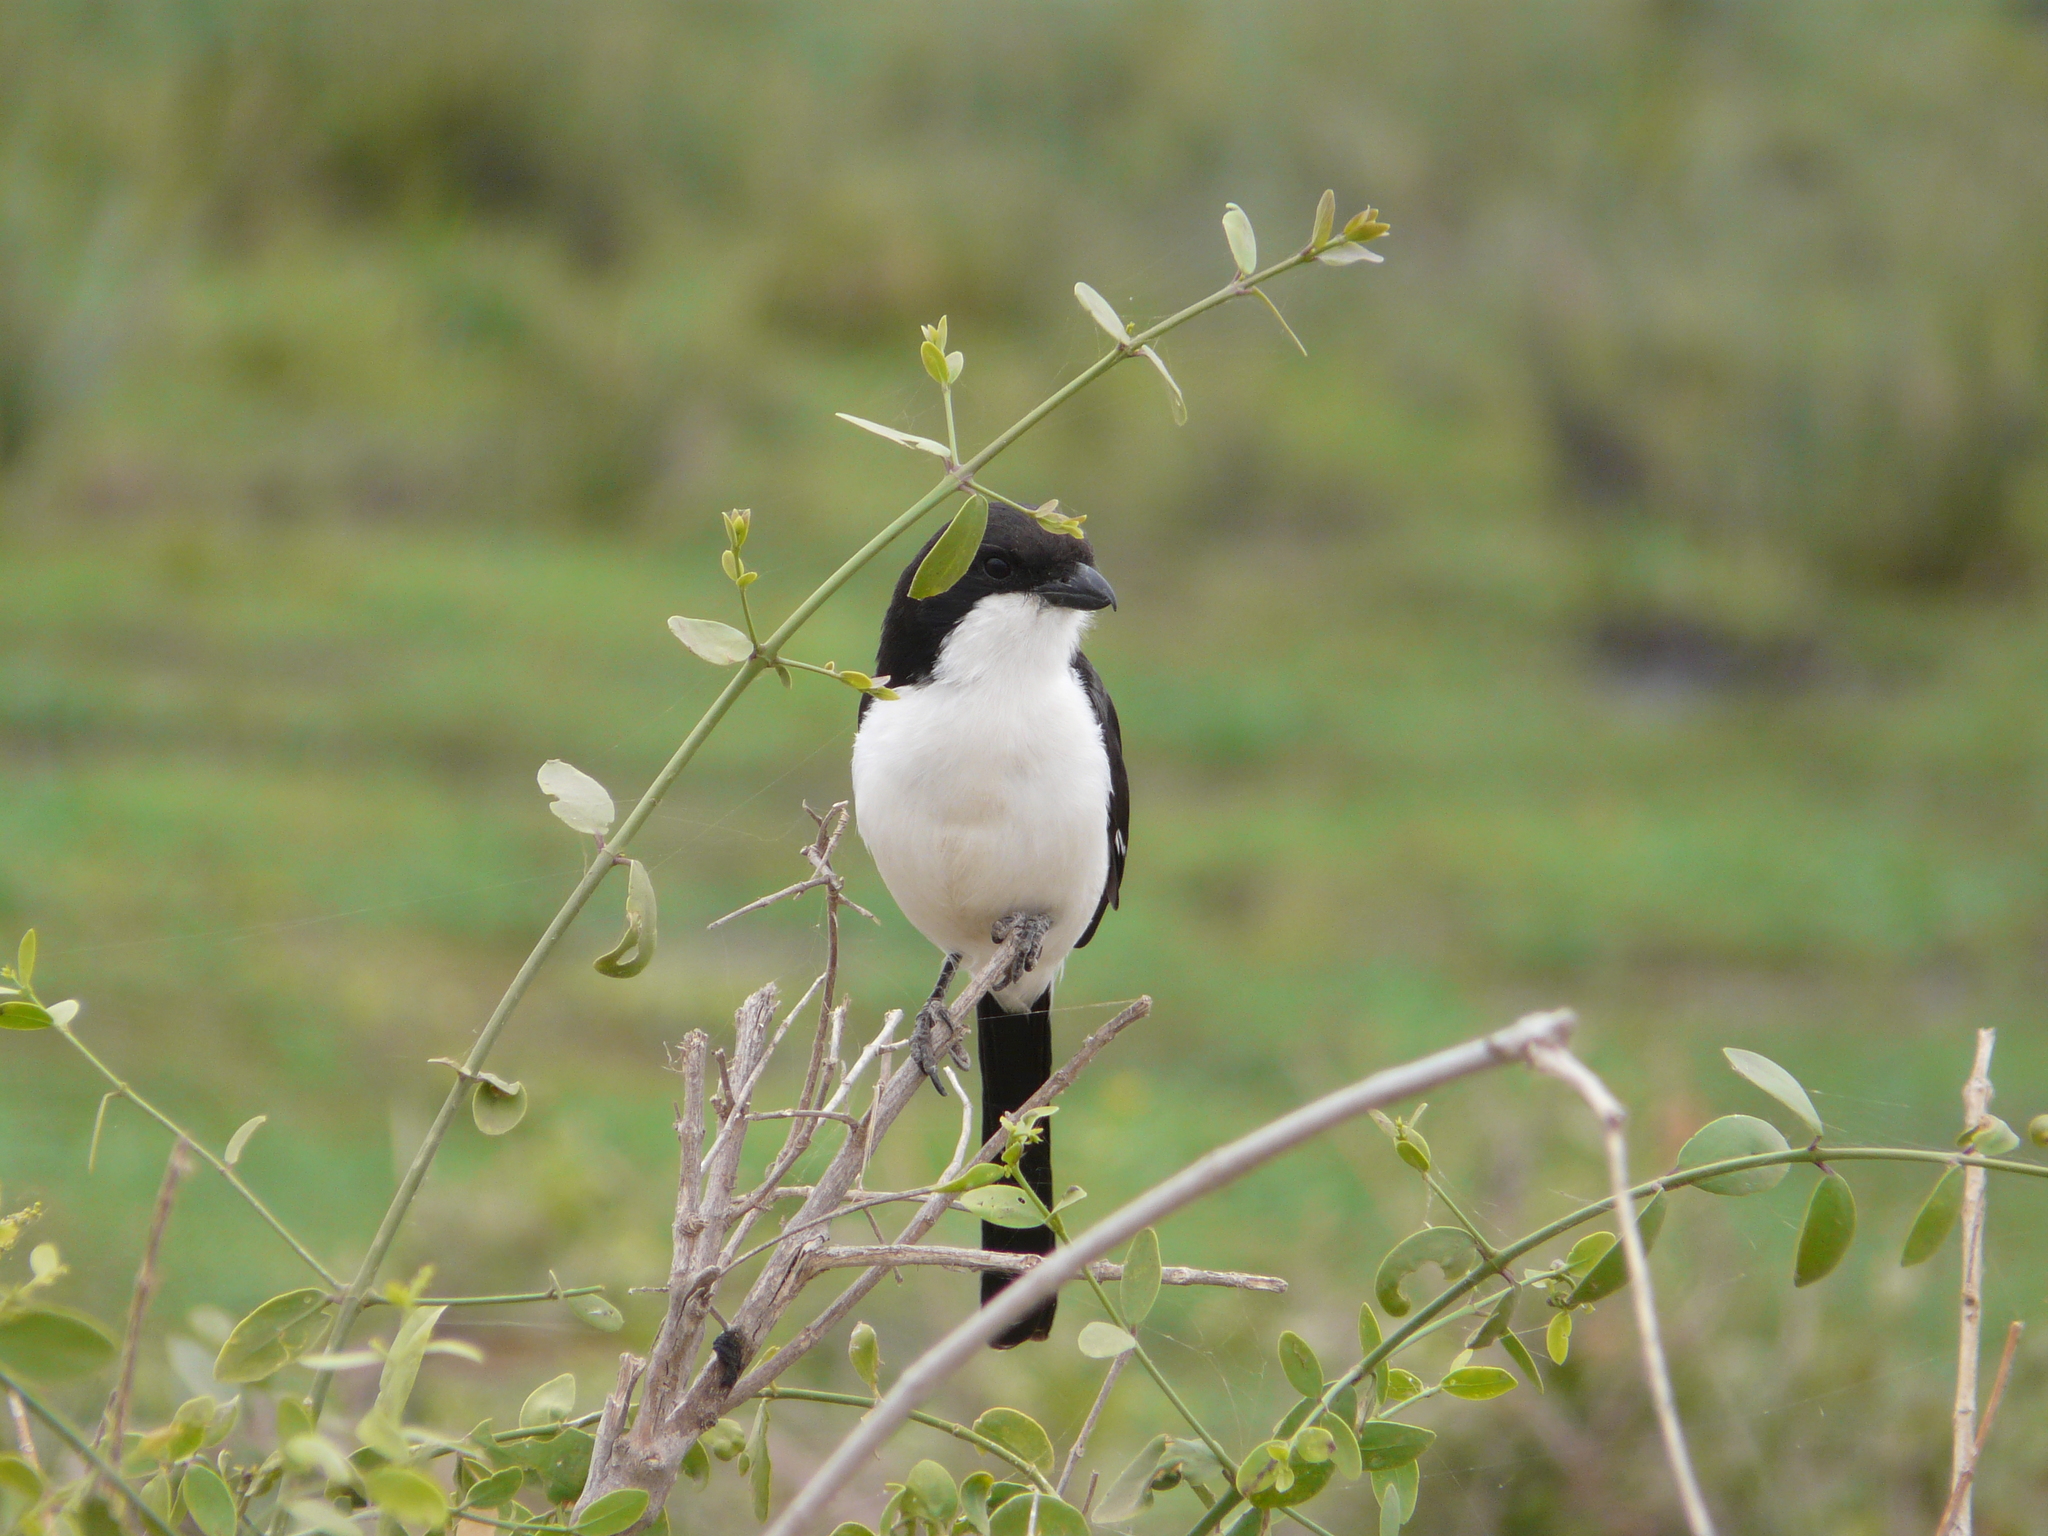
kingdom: Animalia
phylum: Chordata
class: Aves
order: Passeriformes
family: Laniidae
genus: Lanius
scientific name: Lanius cabanisi
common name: Long-tailed fiscal
